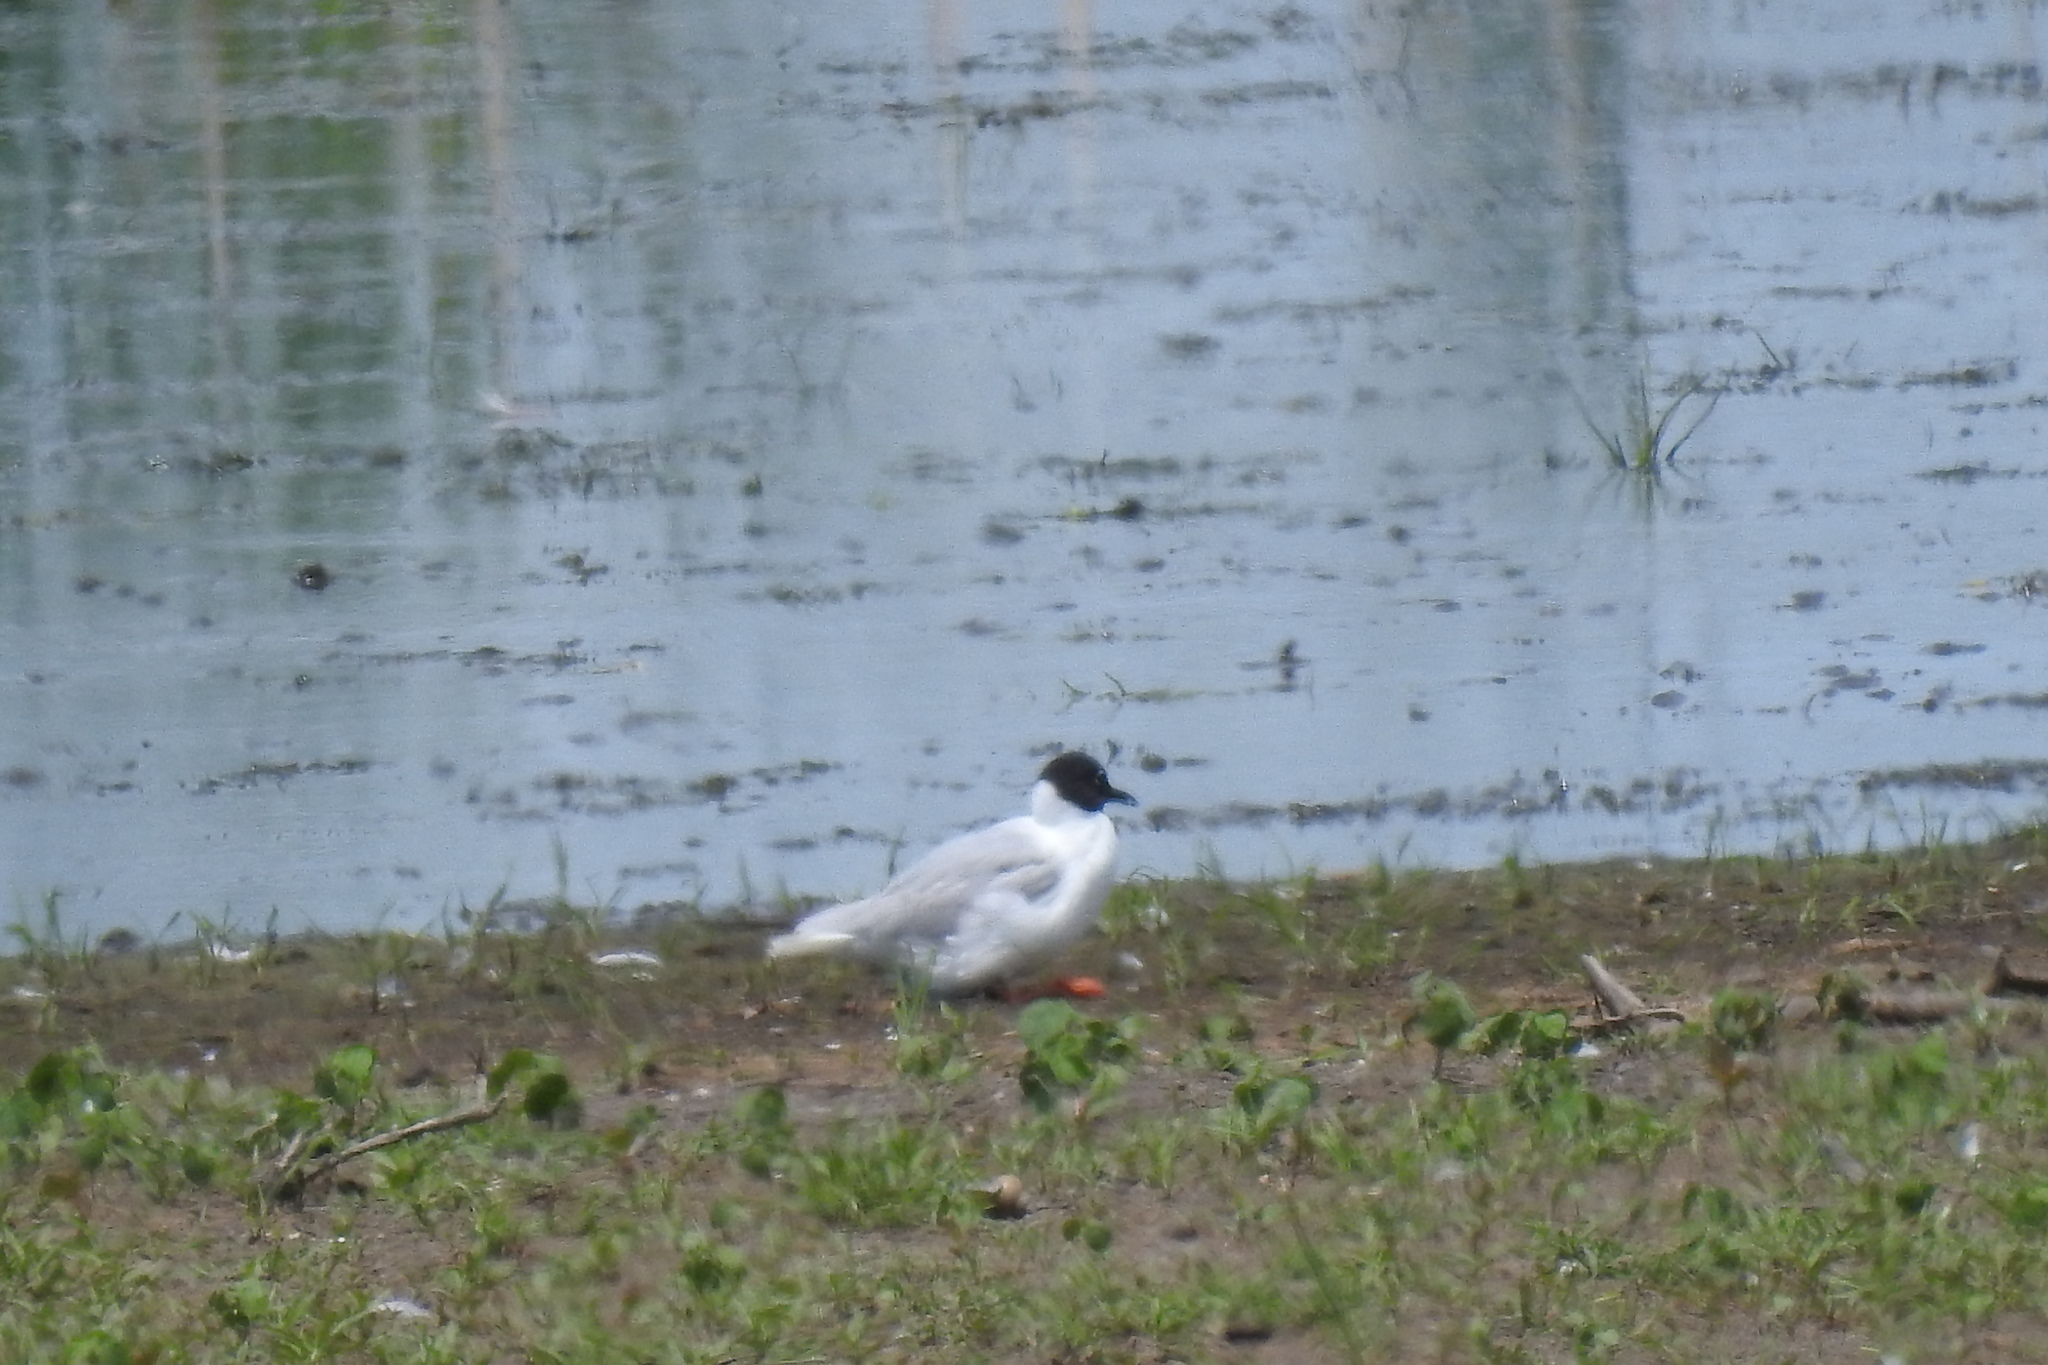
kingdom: Animalia
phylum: Chordata
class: Aves
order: Charadriiformes
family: Laridae
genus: Chroicocephalus
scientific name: Chroicocephalus philadelphia
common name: Bonaparte's gull
